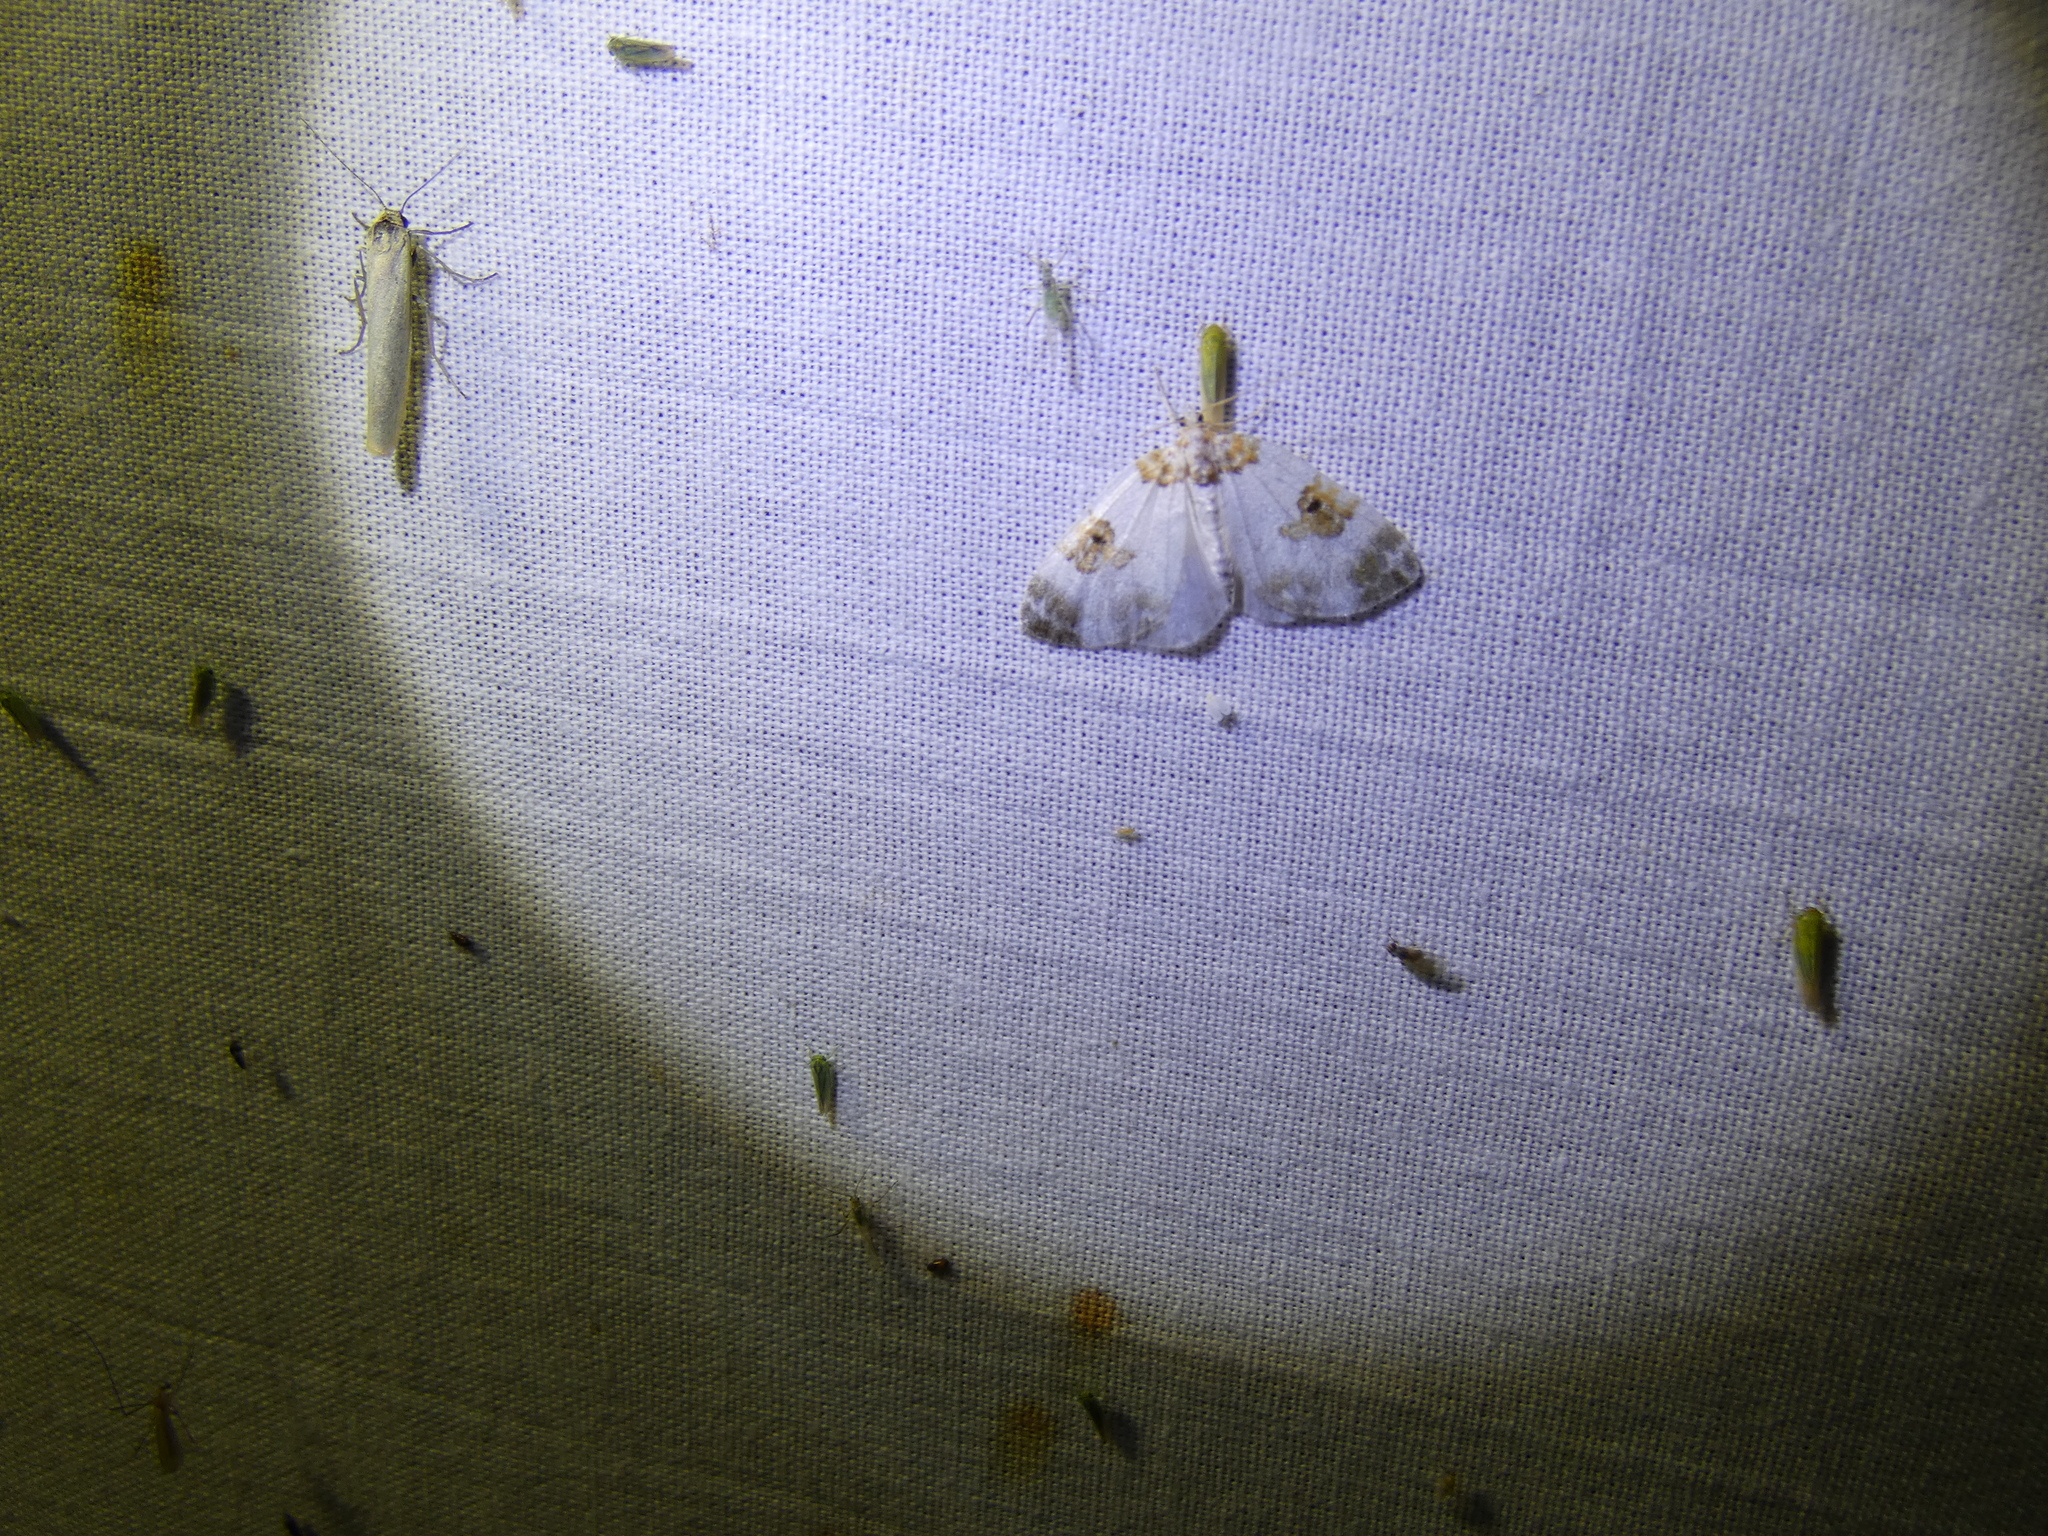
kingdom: Animalia
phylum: Arthropoda
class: Insecta
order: Lepidoptera
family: Geometridae
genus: Plemyria
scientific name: Plemyria rubiginata
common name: Blue-bordered carpet
